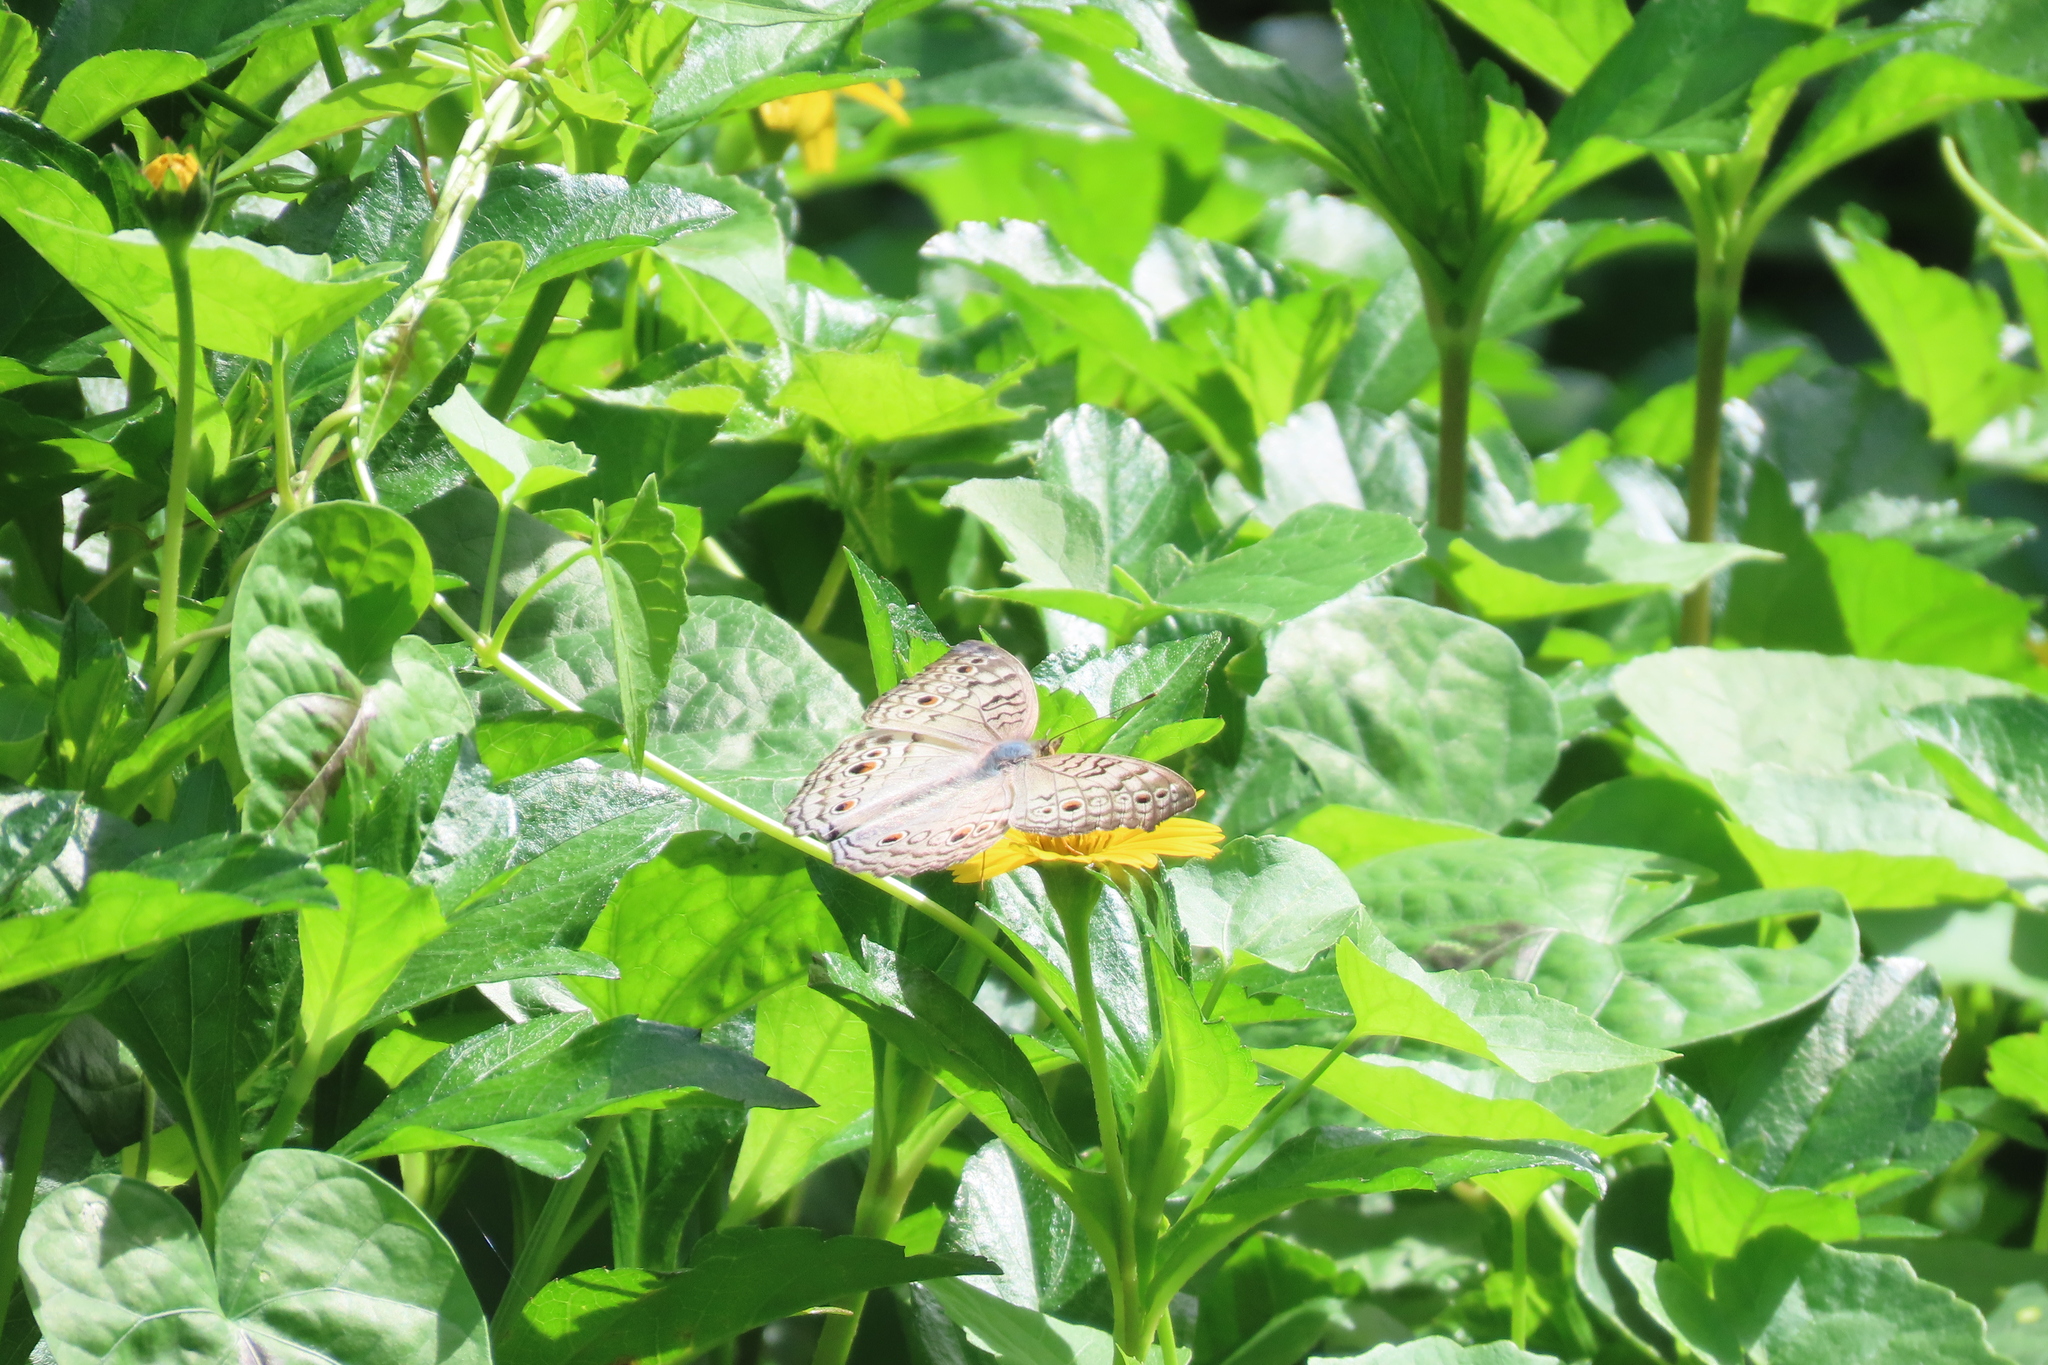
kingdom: Animalia
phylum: Arthropoda
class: Insecta
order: Lepidoptera
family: Nymphalidae
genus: Junonia
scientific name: Junonia atlites
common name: Grey pansy
